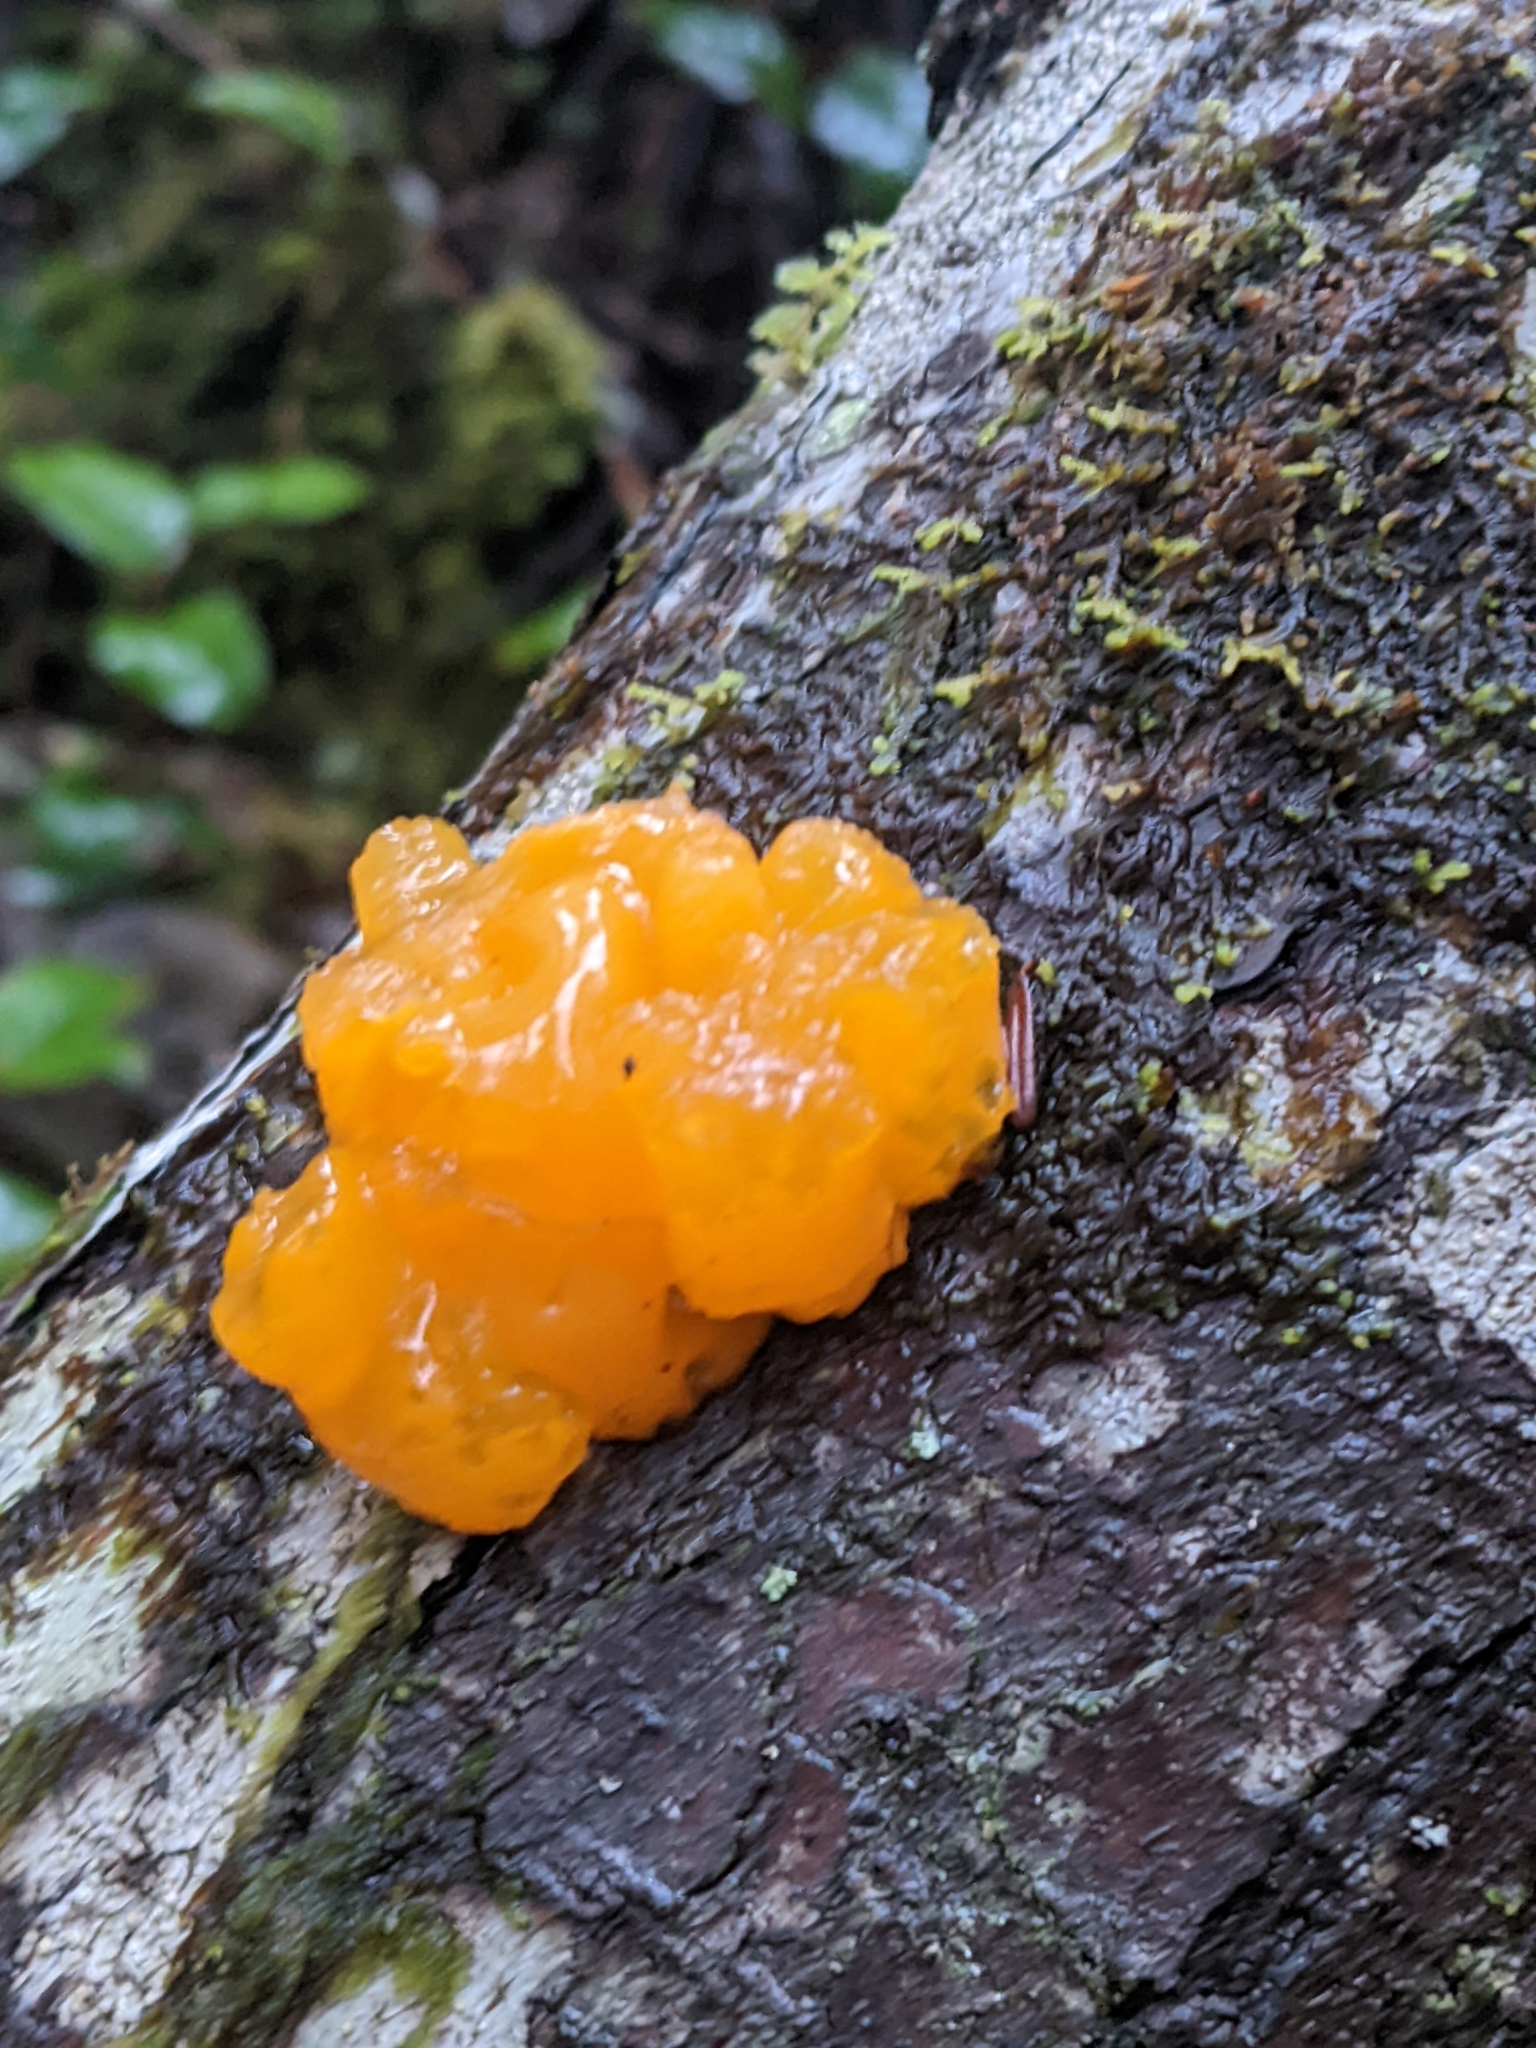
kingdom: Fungi
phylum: Basidiomycota
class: Dacrymycetes
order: Dacrymycetales
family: Dacrymycetaceae
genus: Dacrymyces
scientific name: Dacrymyces chrysospermus
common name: Orange jelly spot
